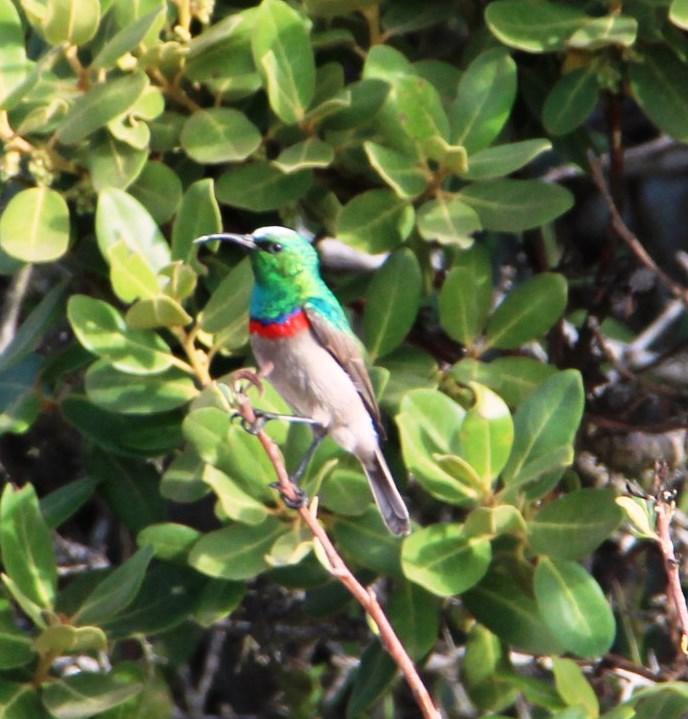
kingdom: Animalia
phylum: Chordata
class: Aves
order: Passeriformes
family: Nectariniidae
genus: Cinnyris
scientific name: Cinnyris chalybeus
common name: Southern double-collared sunbird
